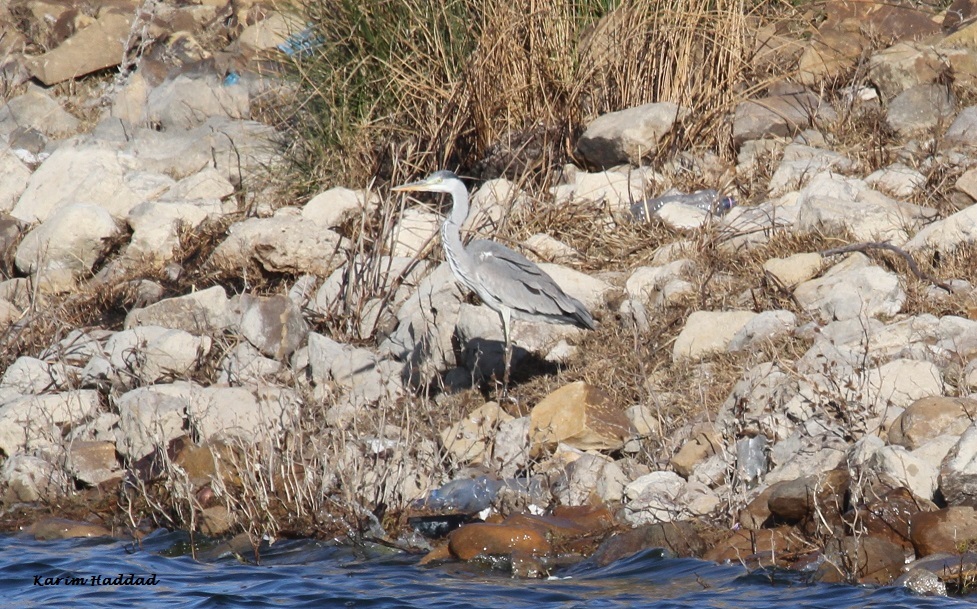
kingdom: Animalia
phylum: Chordata
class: Aves
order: Pelecaniformes
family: Ardeidae
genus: Ardea
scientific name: Ardea cinerea
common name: Grey heron
